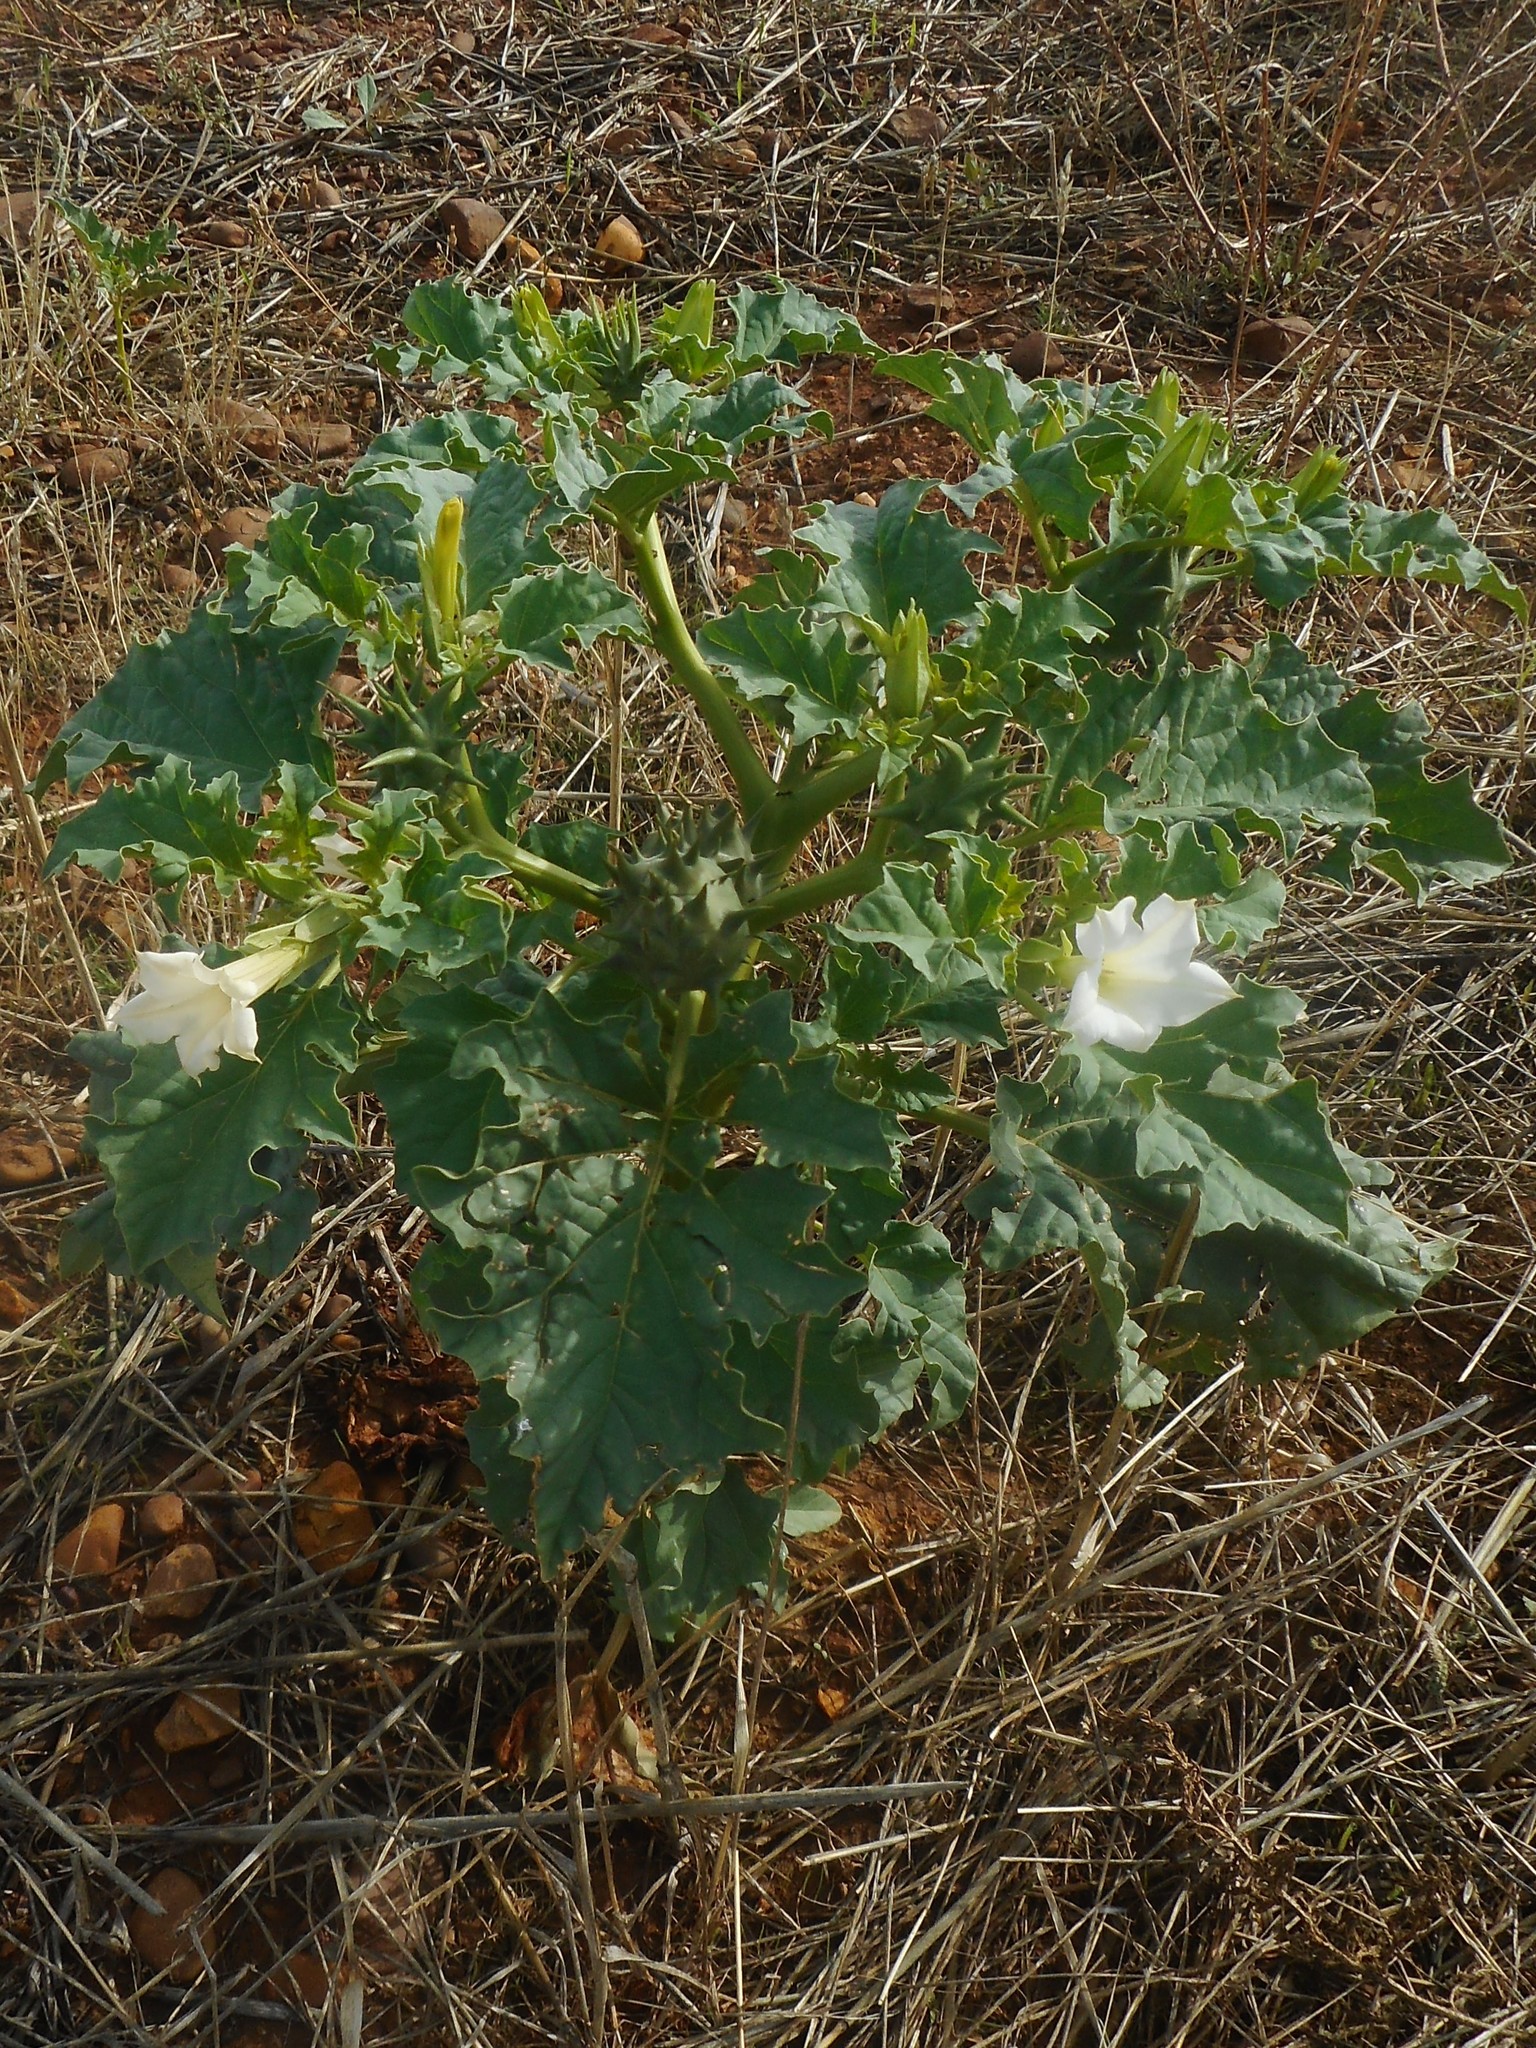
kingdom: Plantae
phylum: Tracheophyta
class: Magnoliopsida
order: Solanales
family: Solanaceae
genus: Datura
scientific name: Datura ferox
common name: Angel's-trumpets
